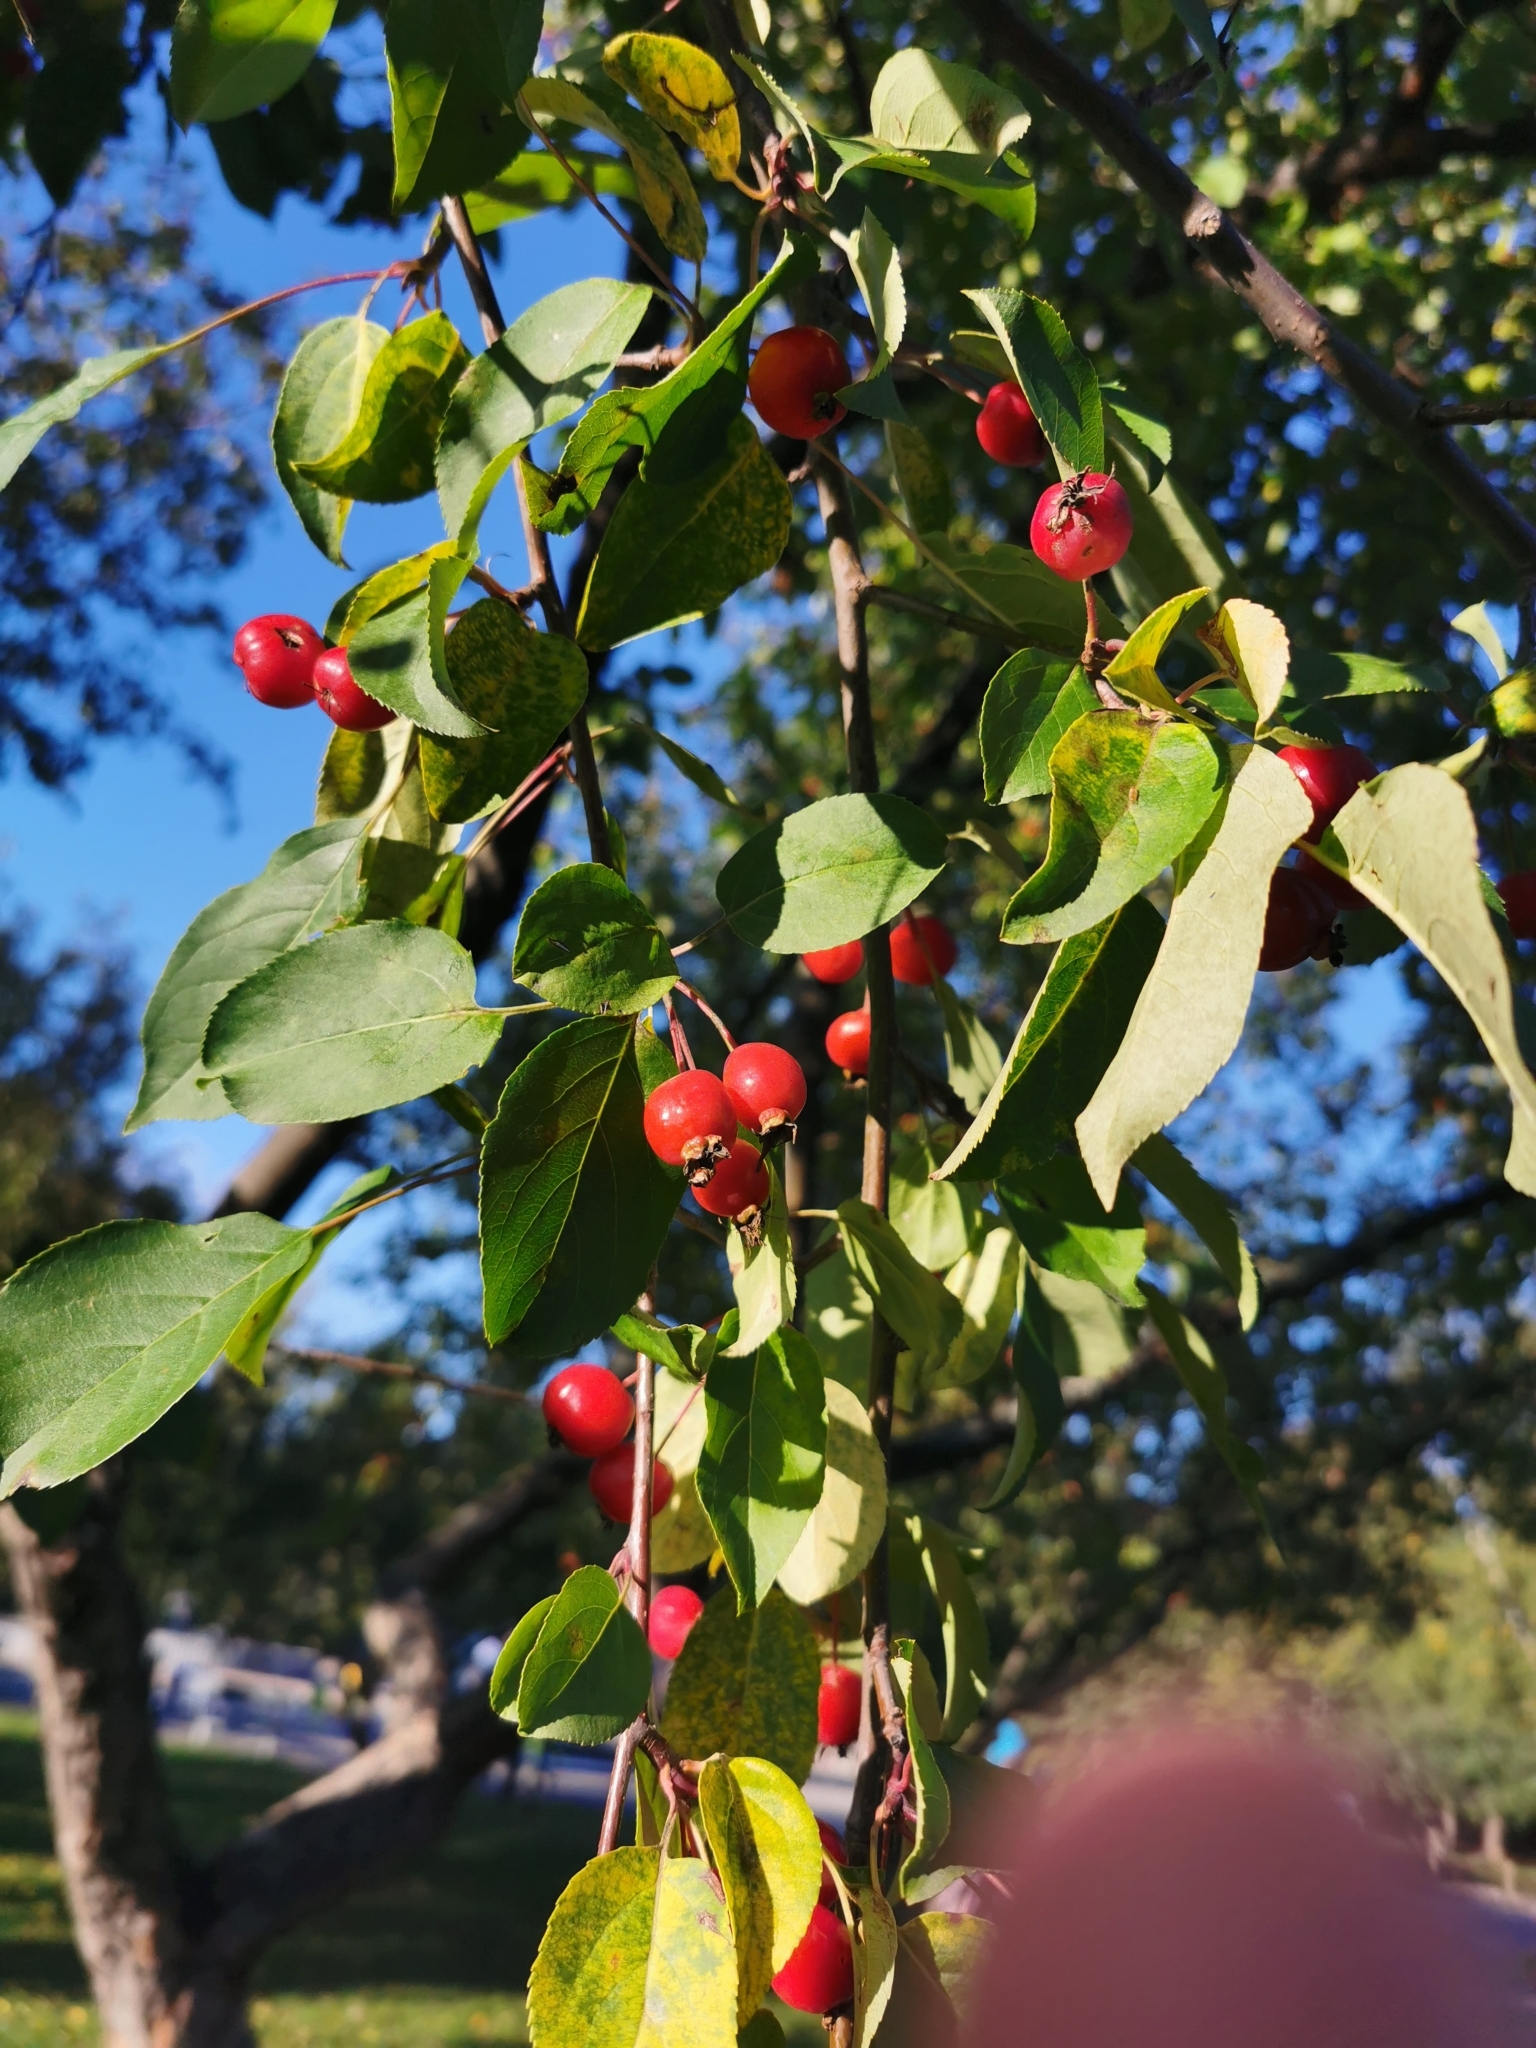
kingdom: Plantae
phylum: Tracheophyta
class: Magnoliopsida
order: Rosales
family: Rosaceae
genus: Malus
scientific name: Malus baccata
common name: Siberian crab
